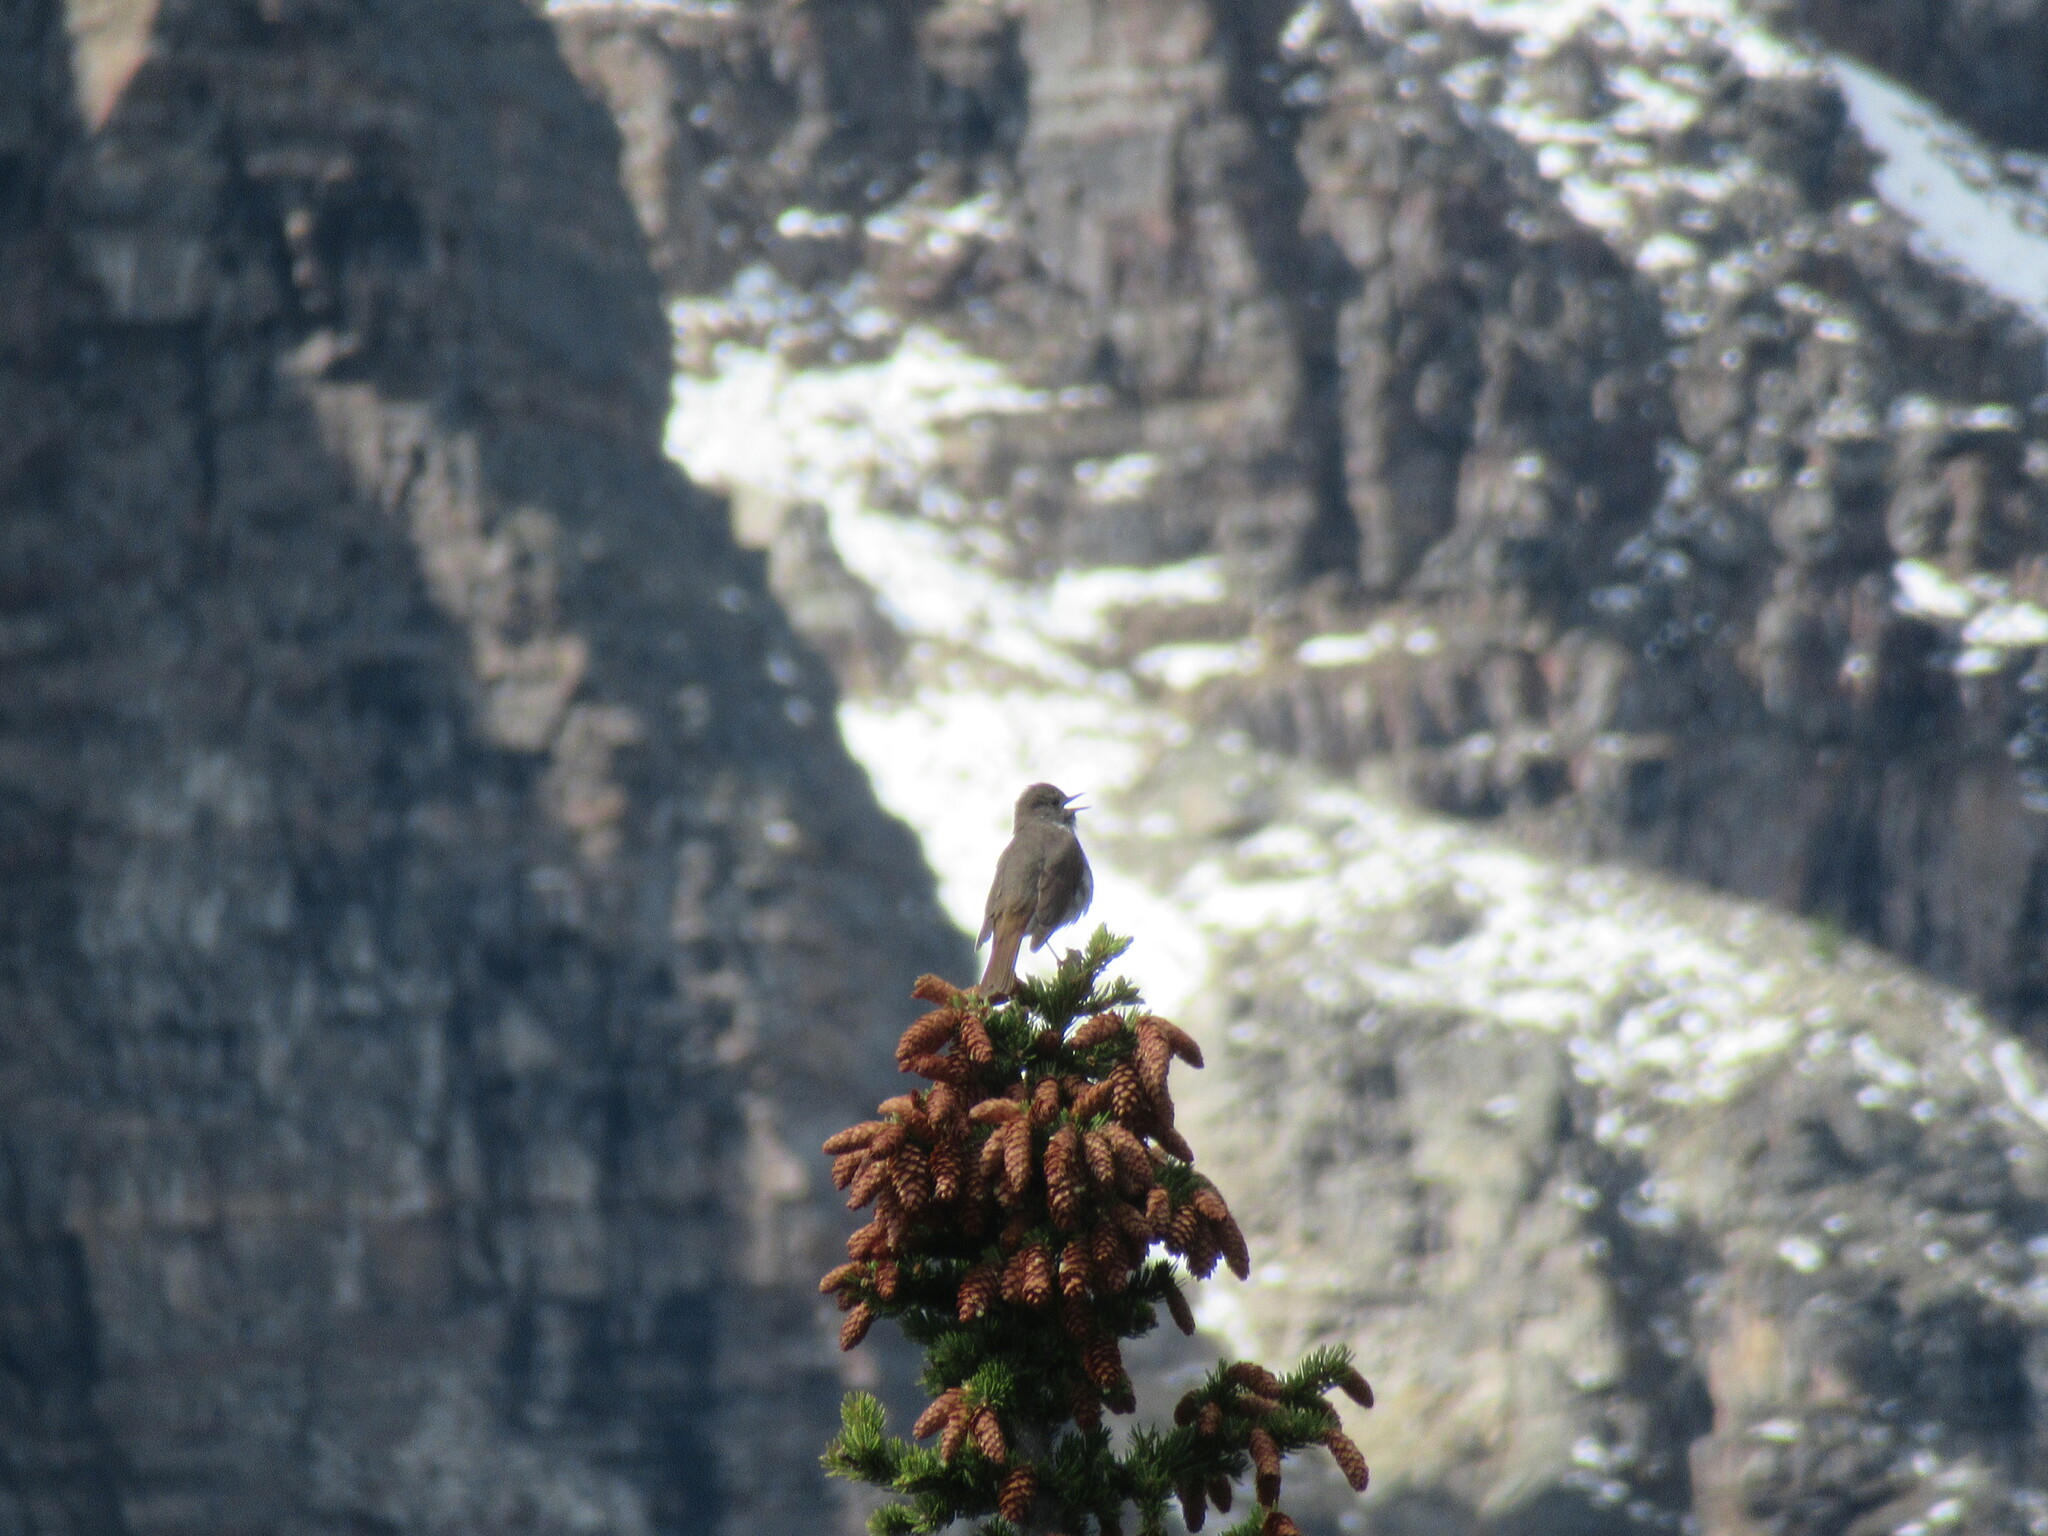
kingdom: Animalia
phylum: Chordata
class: Aves
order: Passeriformes
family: Turdidae
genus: Catharus
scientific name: Catharus guttatus
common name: Hermit thrush
